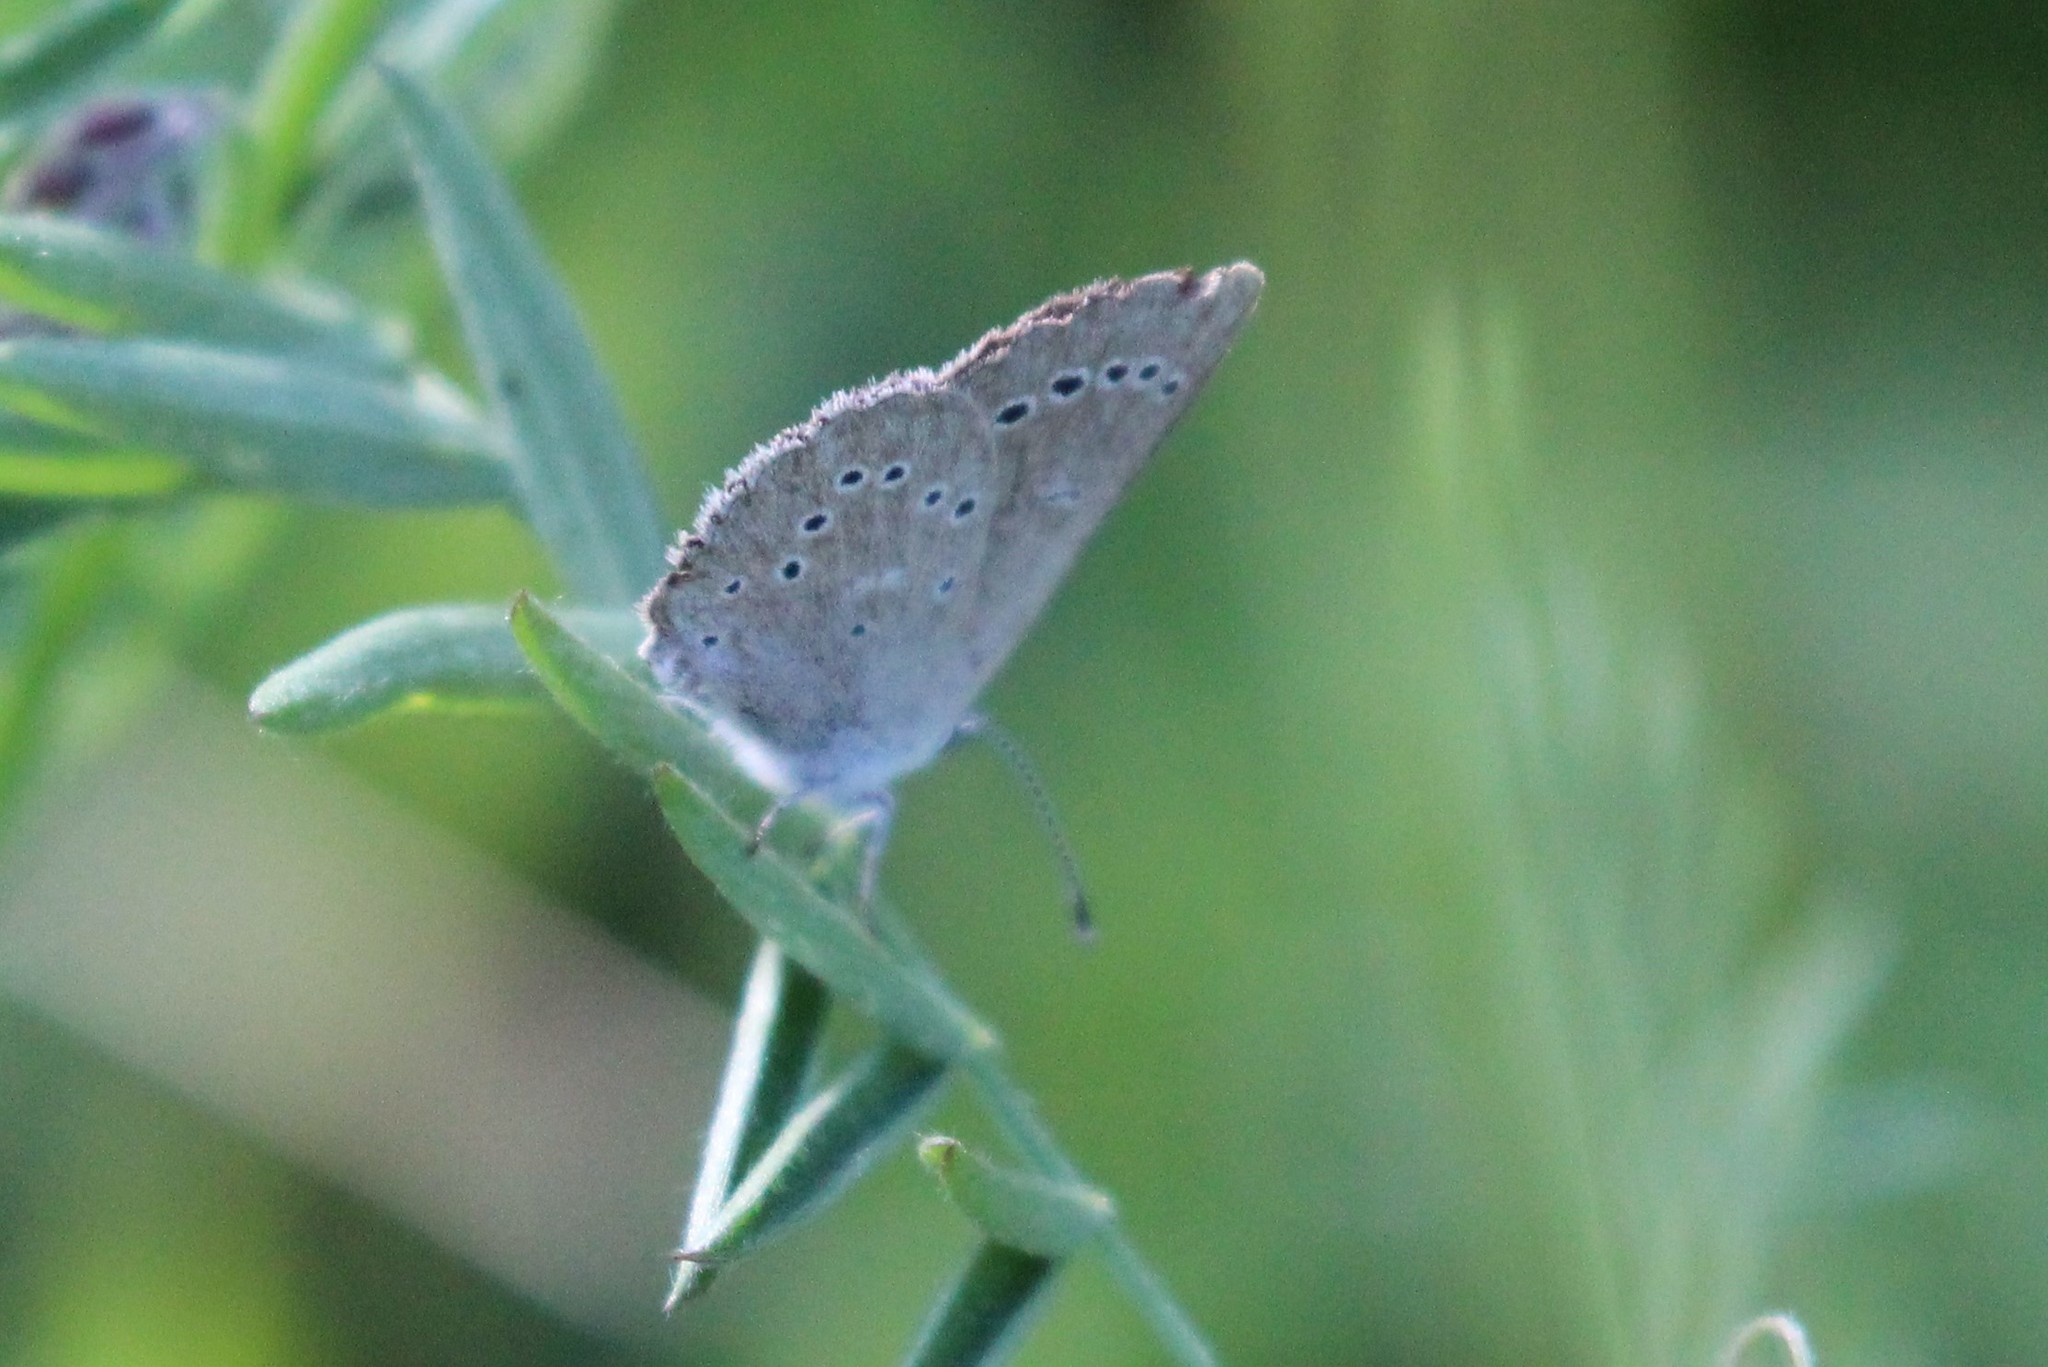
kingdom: Animalia
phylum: Arthropoda
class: Insecta
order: Lepidoptera
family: Lycaenidae
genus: Glaucopsyche
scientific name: Glaucopsyche lygdamus
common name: Silvery blue
